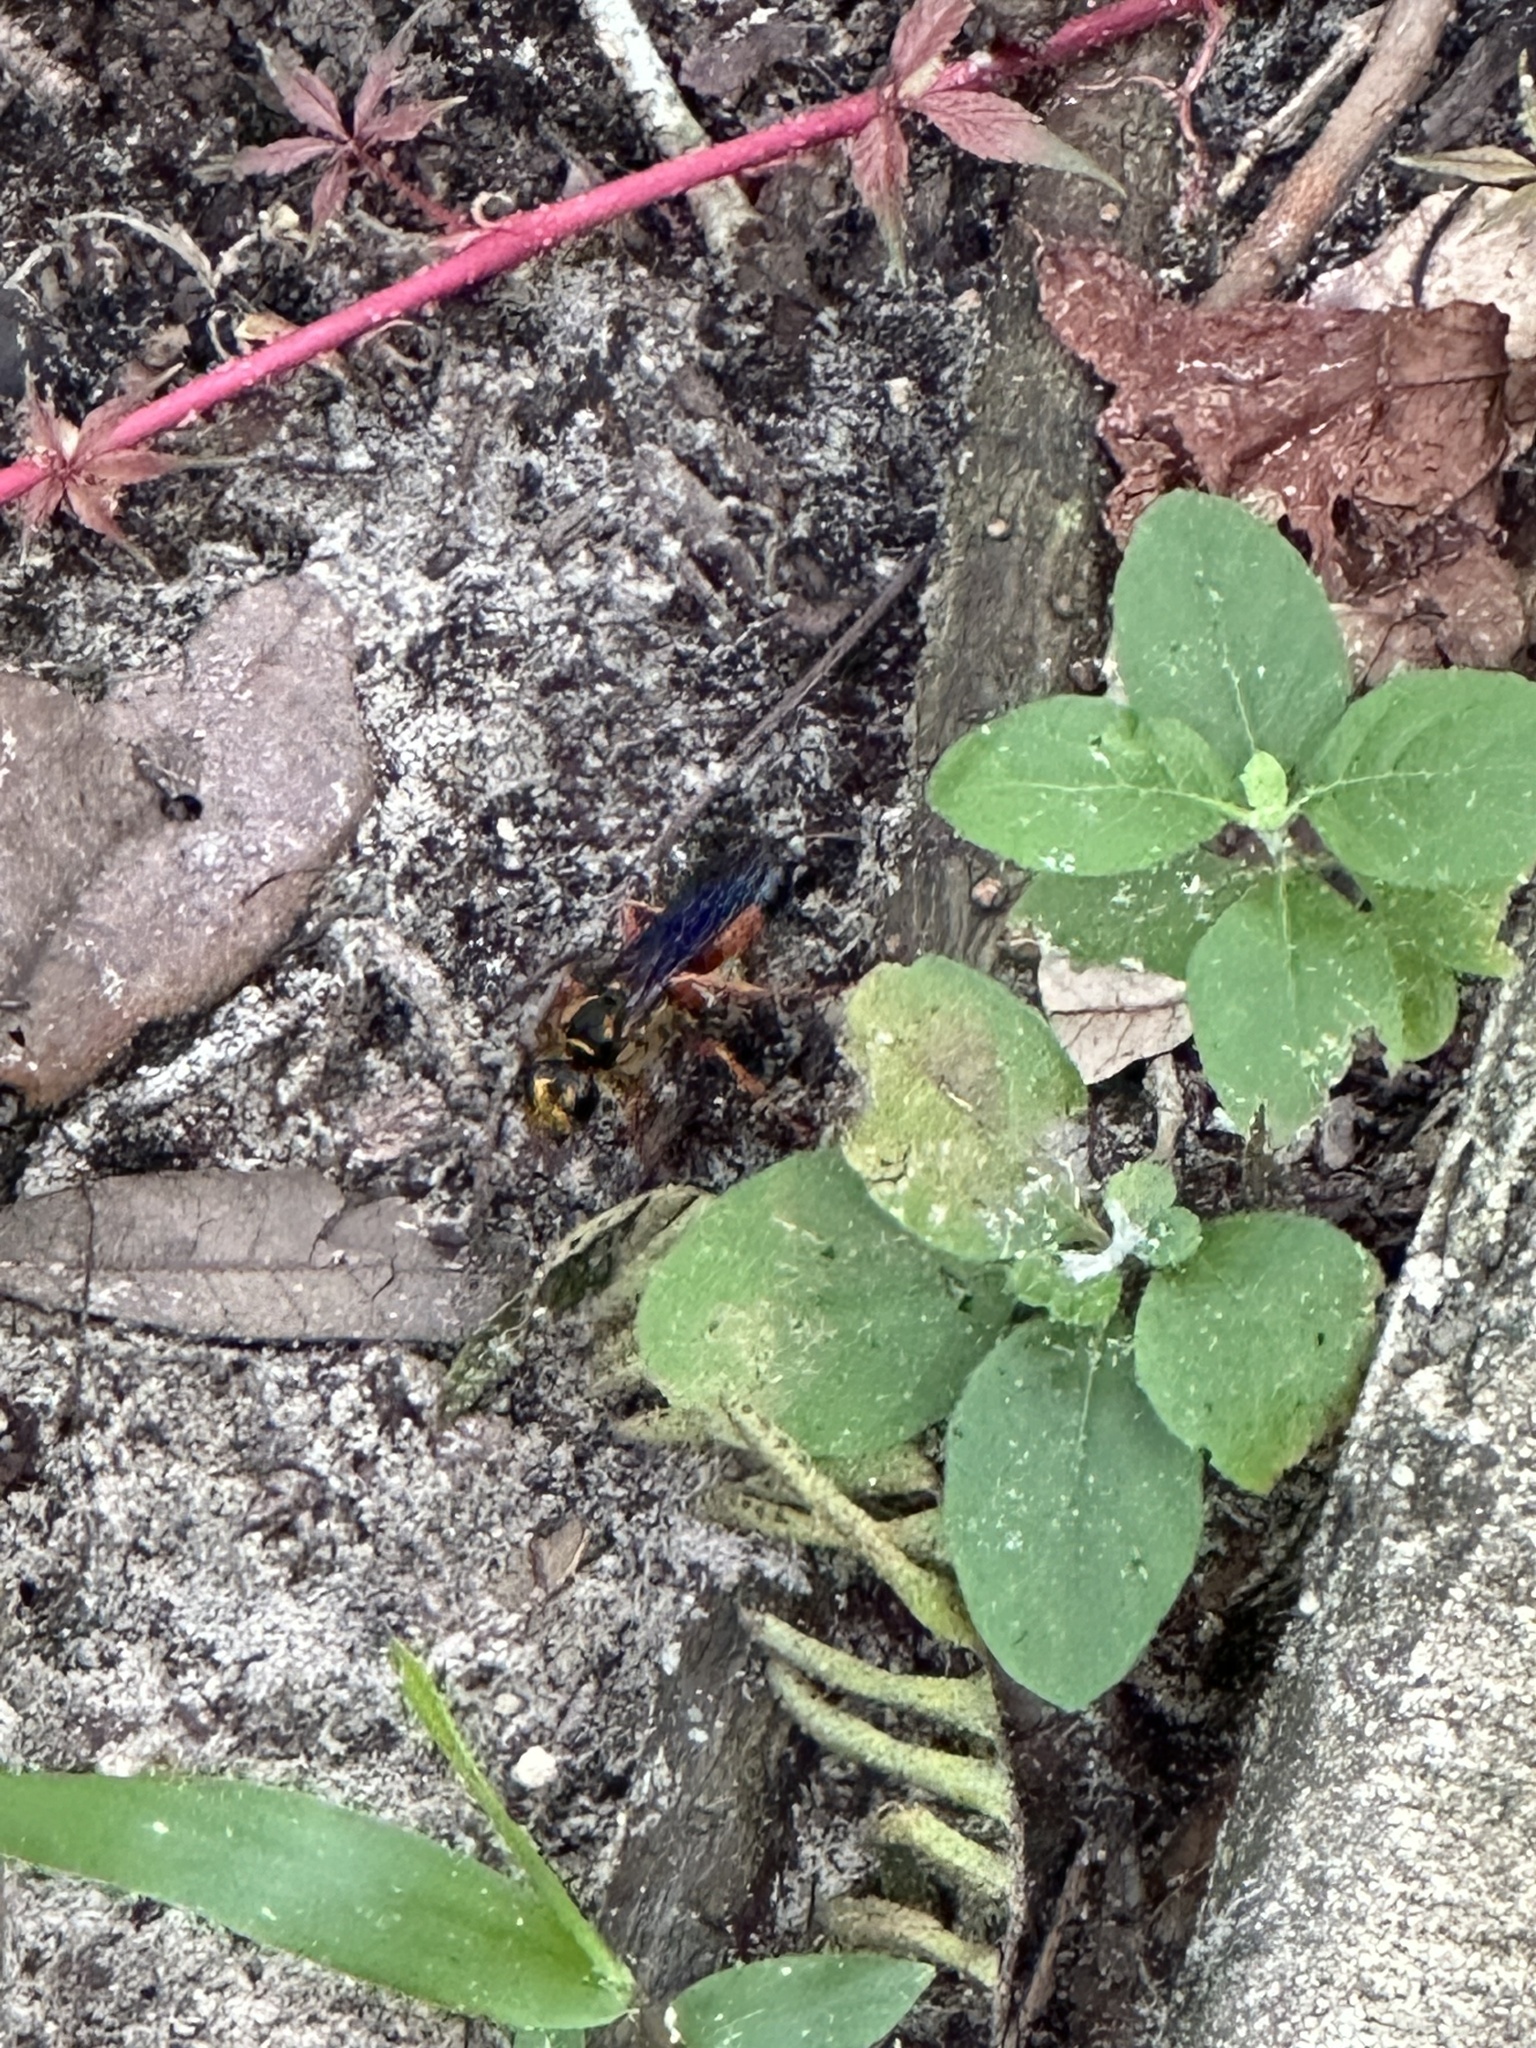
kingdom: Animalia
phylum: Arthropoda
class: Insecta
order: Hymenoptera
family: Sphecidae
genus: Sphex
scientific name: Sphex ichneumoneus
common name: Great golden digger wasp
